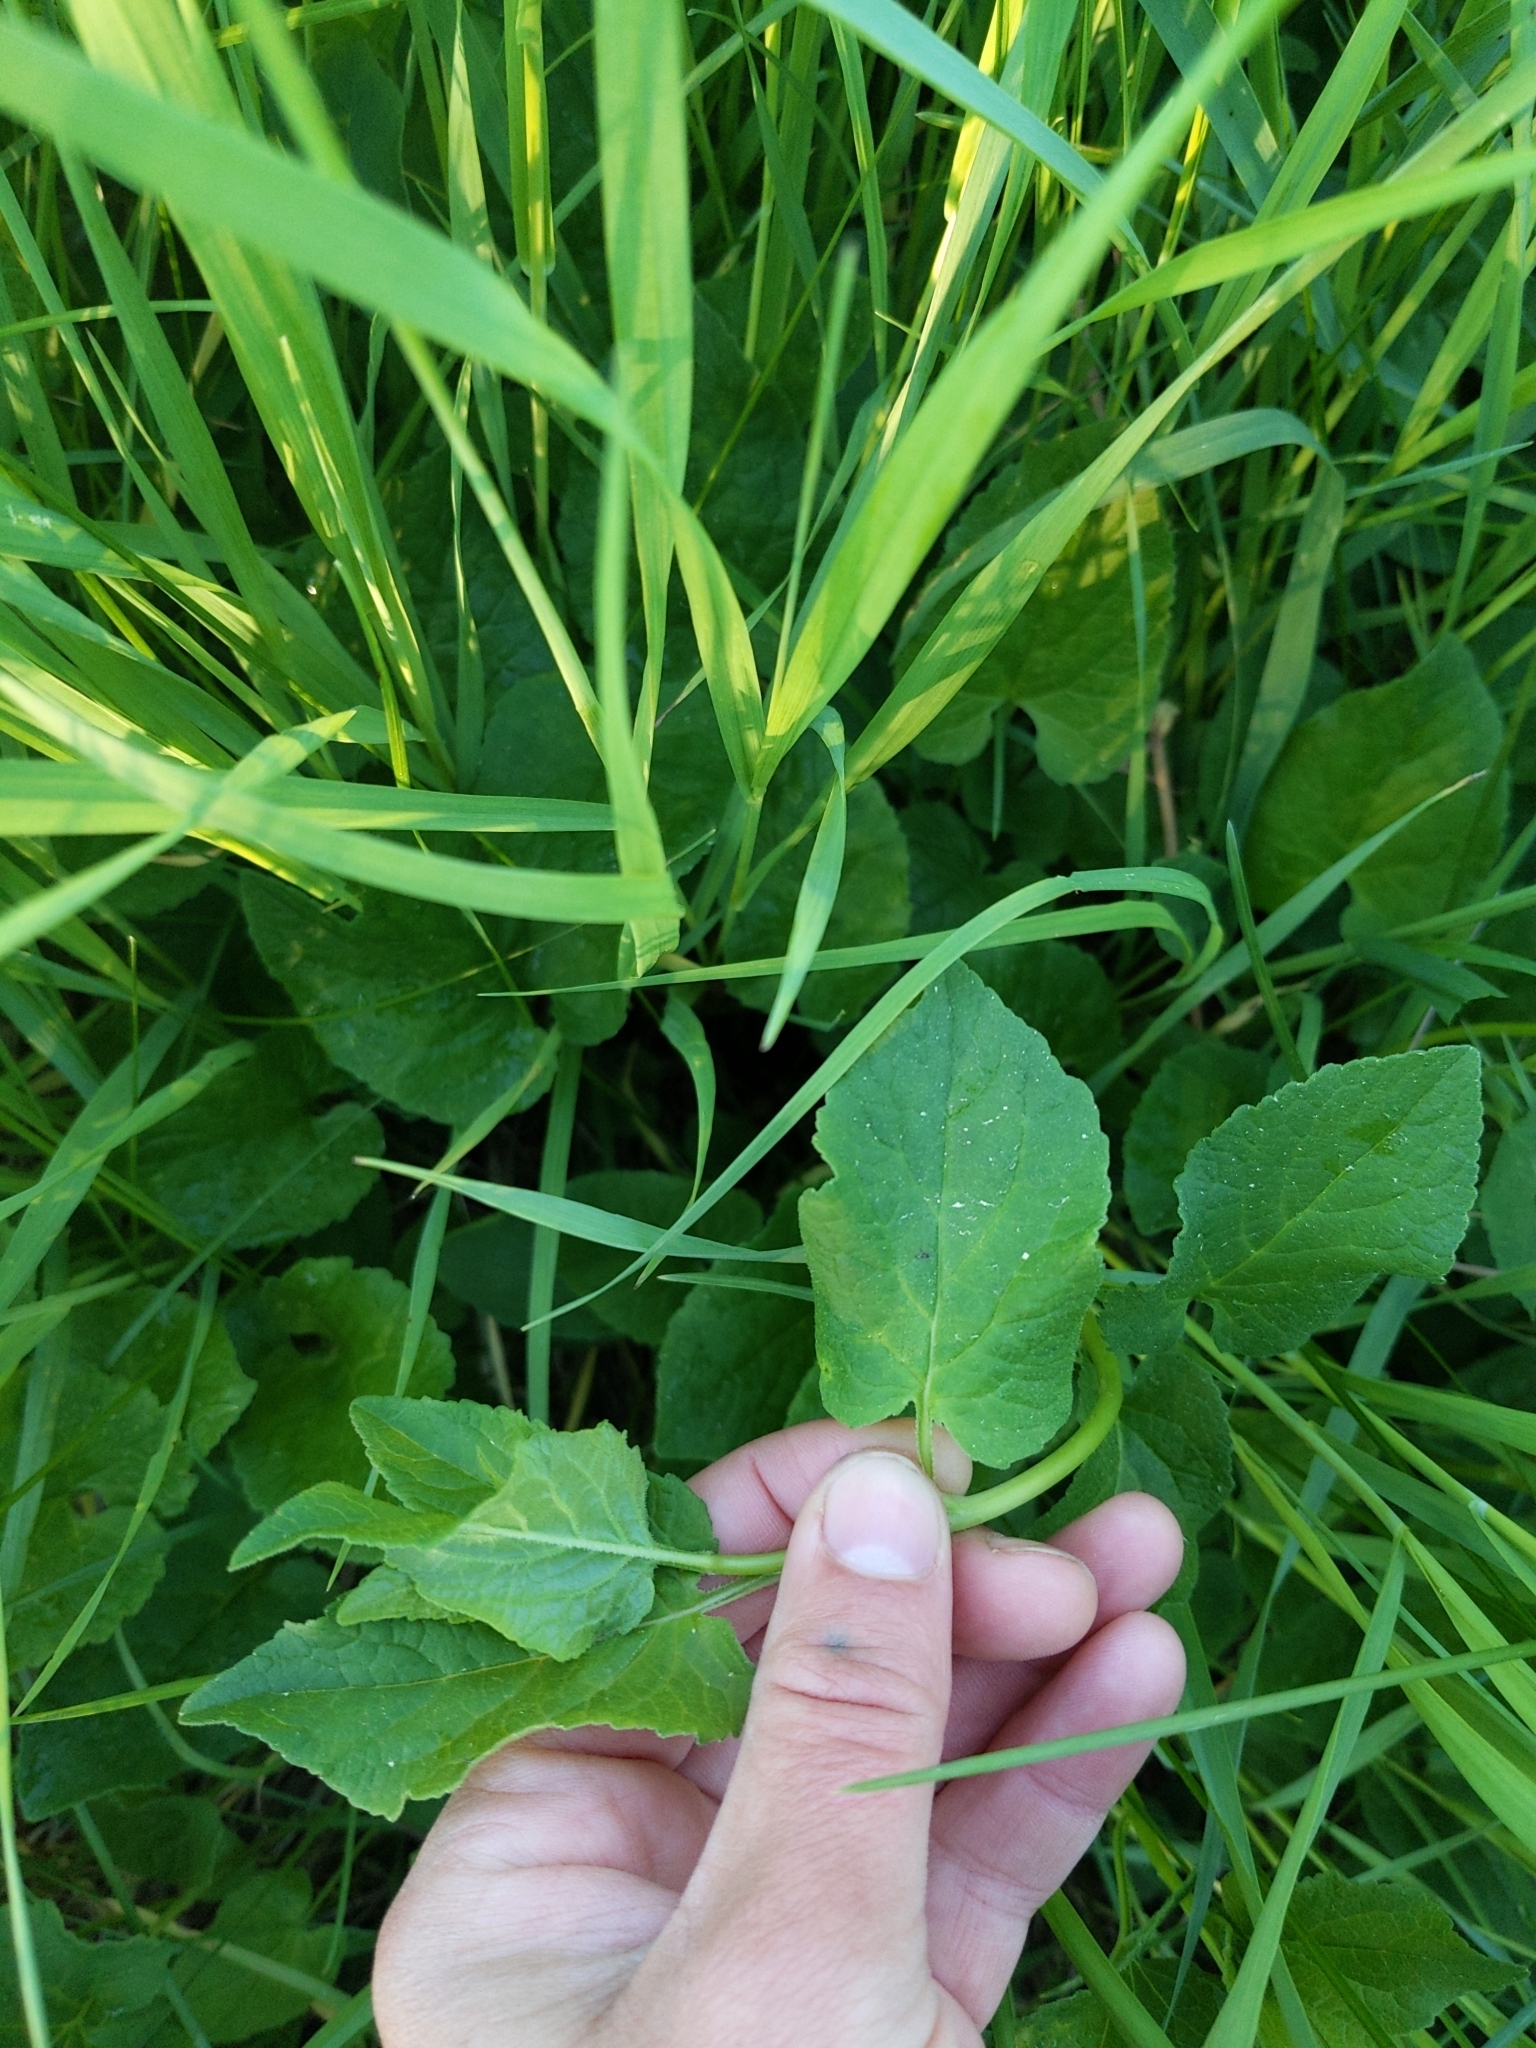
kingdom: Plantae
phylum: Tracheophyta
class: Magnoliopsida
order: Asterales
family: Campanulaceae
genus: Campanula
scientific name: Campanula rapunculoides
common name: Creeping bellflower
